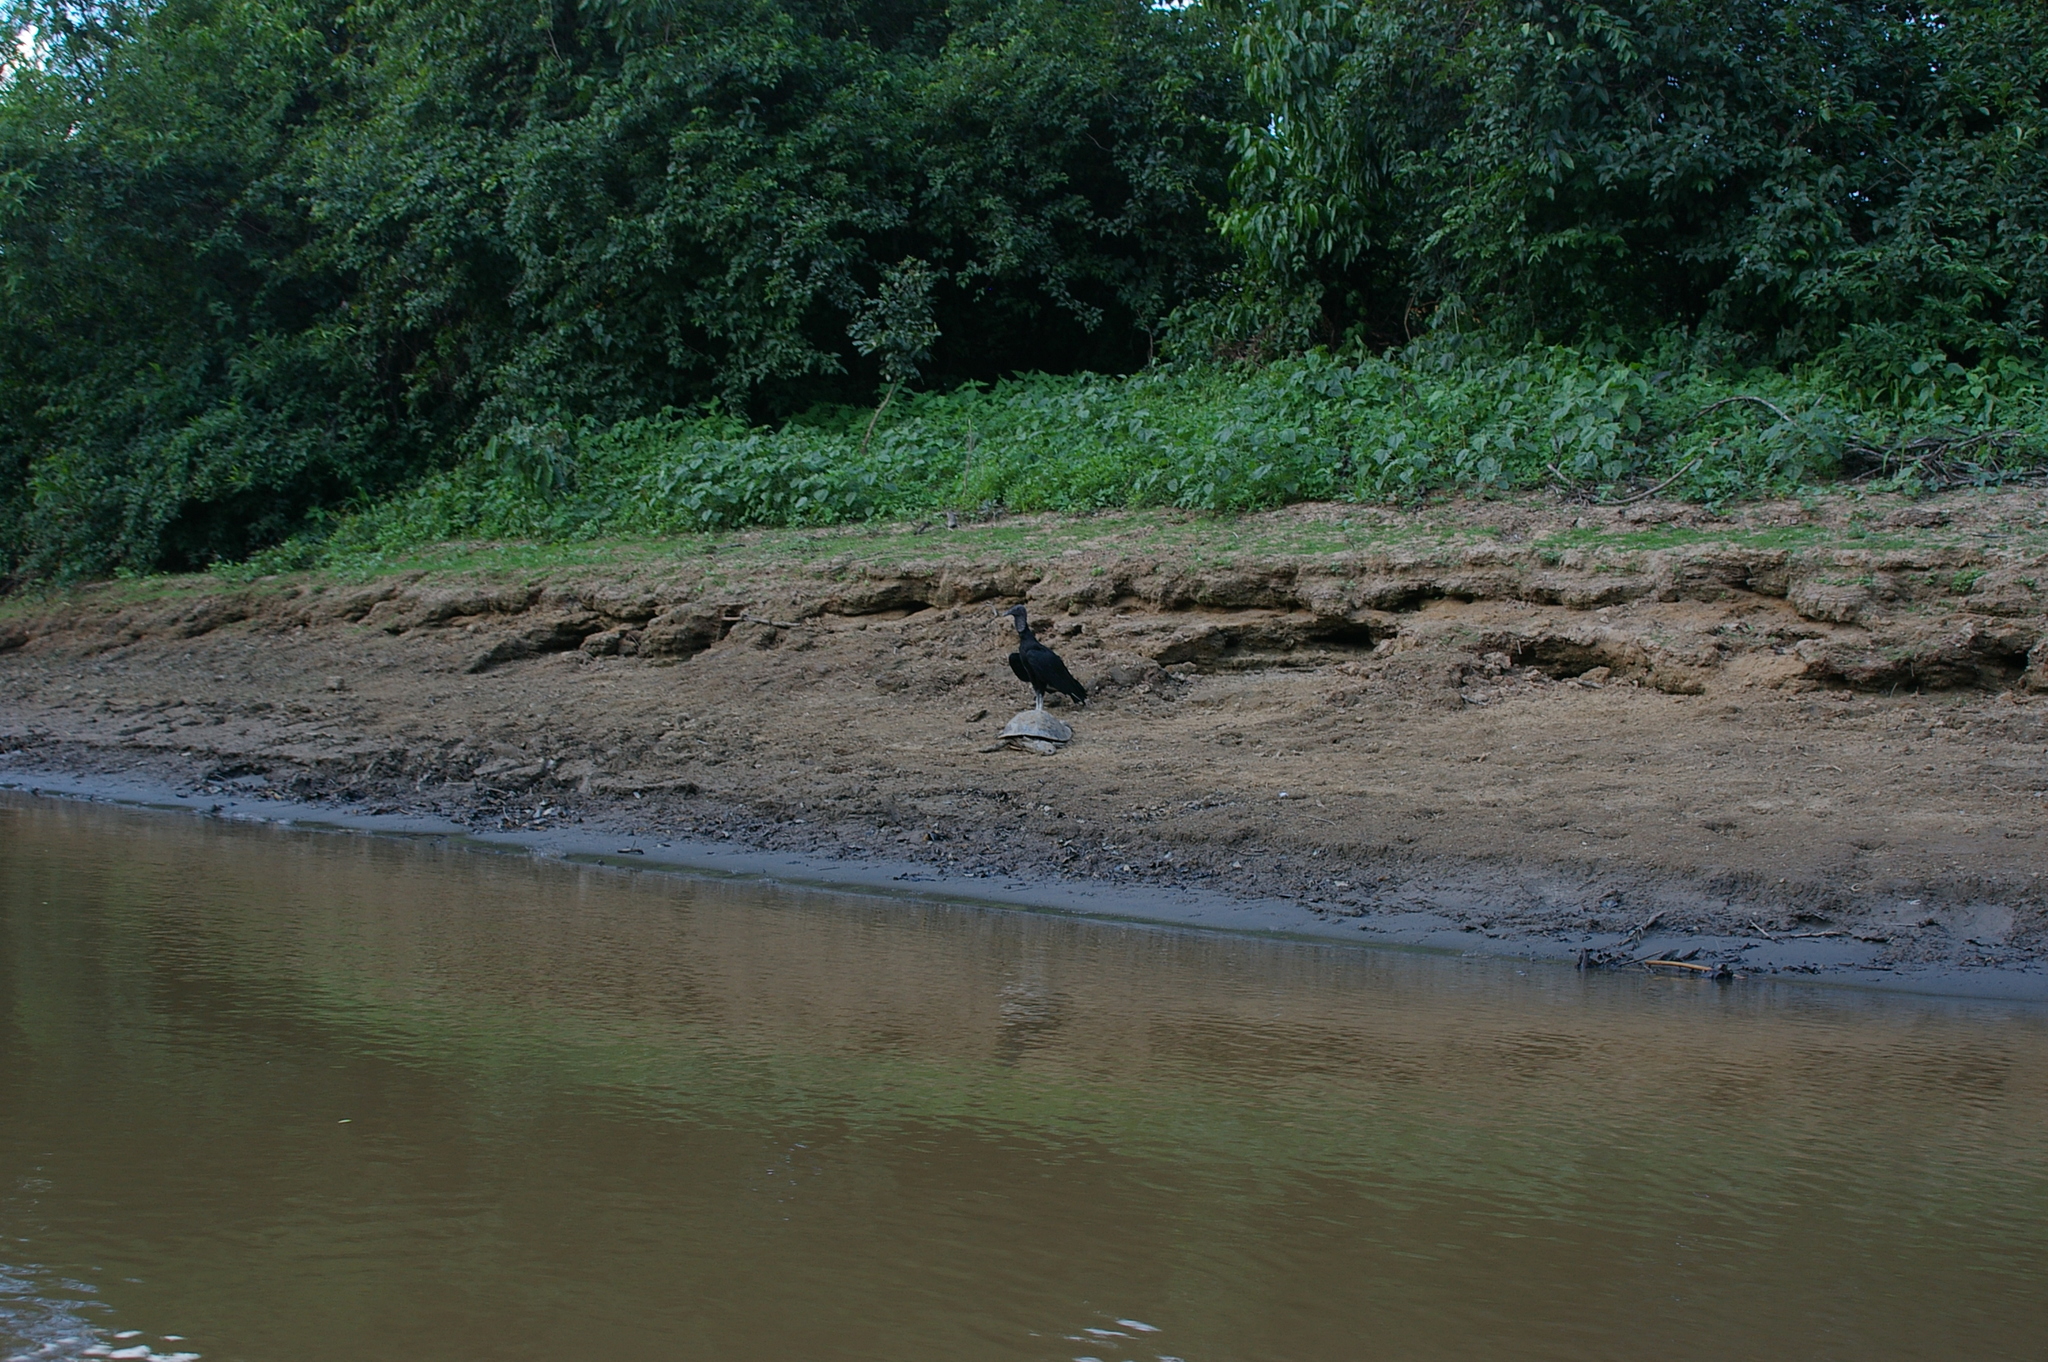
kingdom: Animalia
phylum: Chordata
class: Aves
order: Accipitriformes
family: Cathartidae
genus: Coragyps
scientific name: Coragyps atratus
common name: Black vulture
